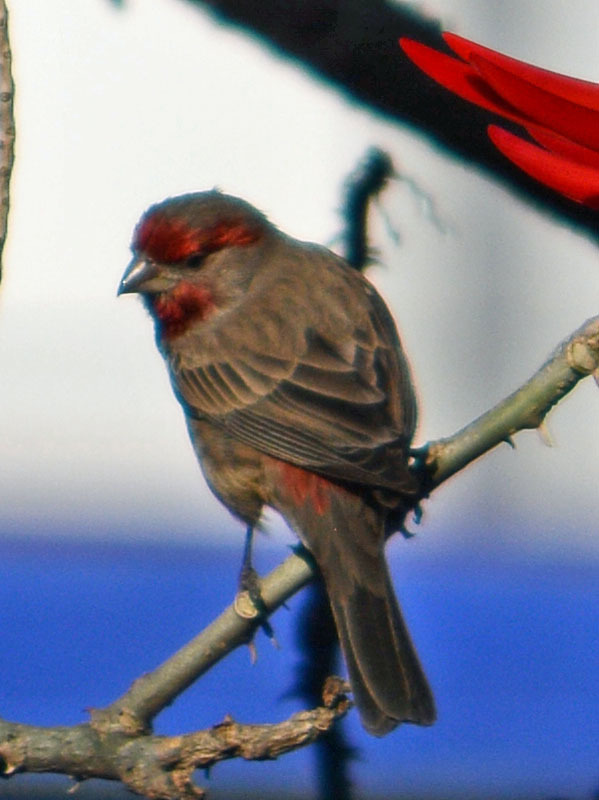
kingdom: Animalia
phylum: Chordata
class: Aves
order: Passeriformes
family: Fringillidae
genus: Haemorhous
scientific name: Haemorhous mexicanus
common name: House finch
